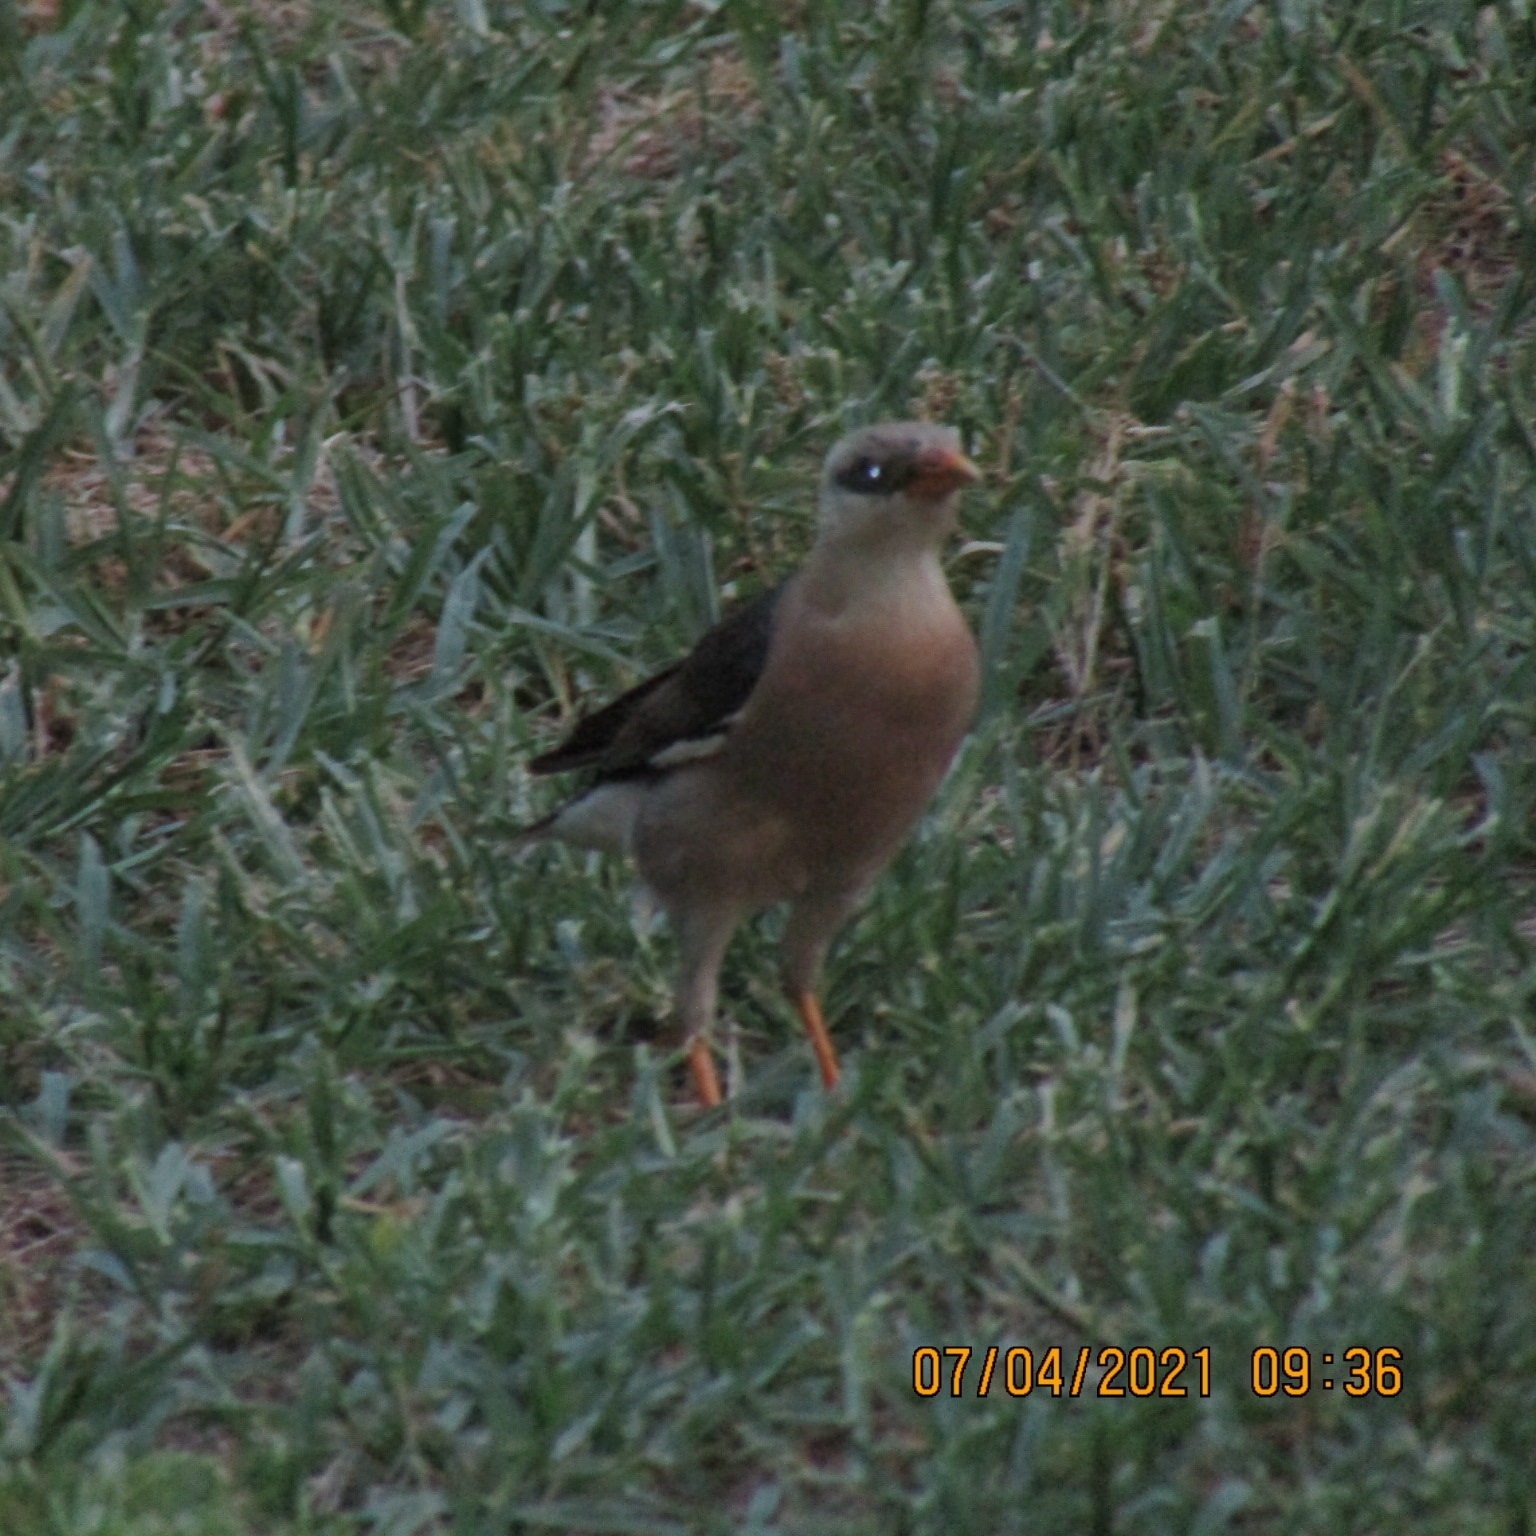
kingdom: Animalia
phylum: Chordata
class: Aves
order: Passeriformes
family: Sturnidae
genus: Acridotheres
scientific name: Acridotheres leucocephalus
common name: Vinous-breasted myna
